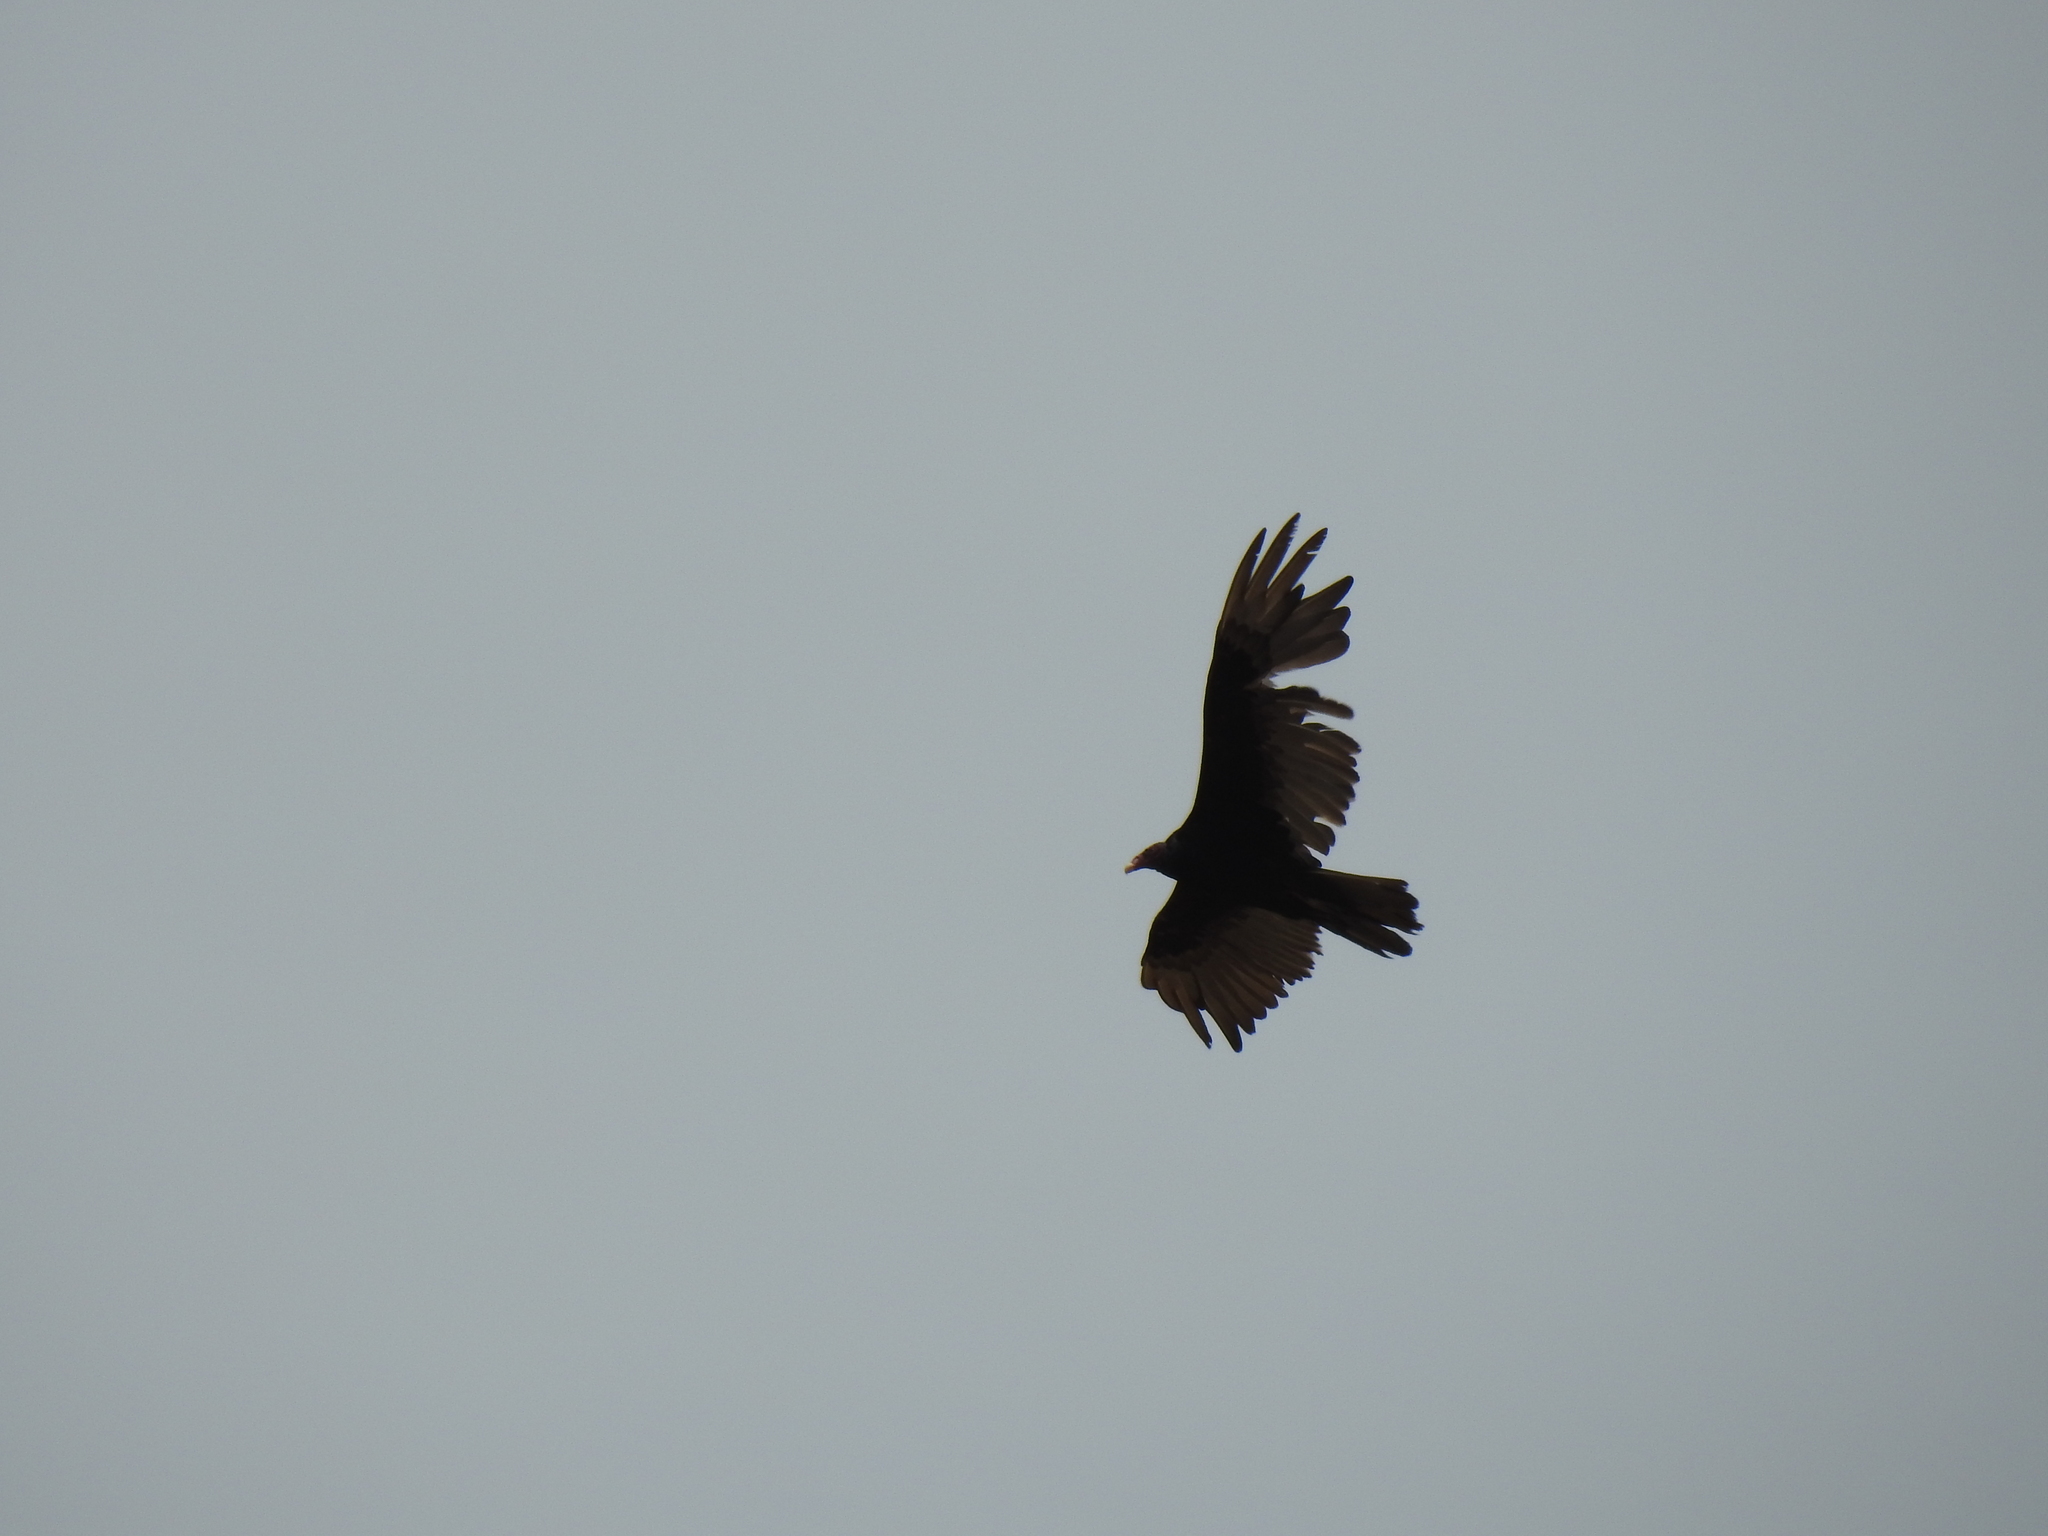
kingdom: Animalia
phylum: Chordata
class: Aves
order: Accipitriformes
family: Cathartidae
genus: Cathartes
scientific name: Cathartes aura
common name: Turkey vulture
